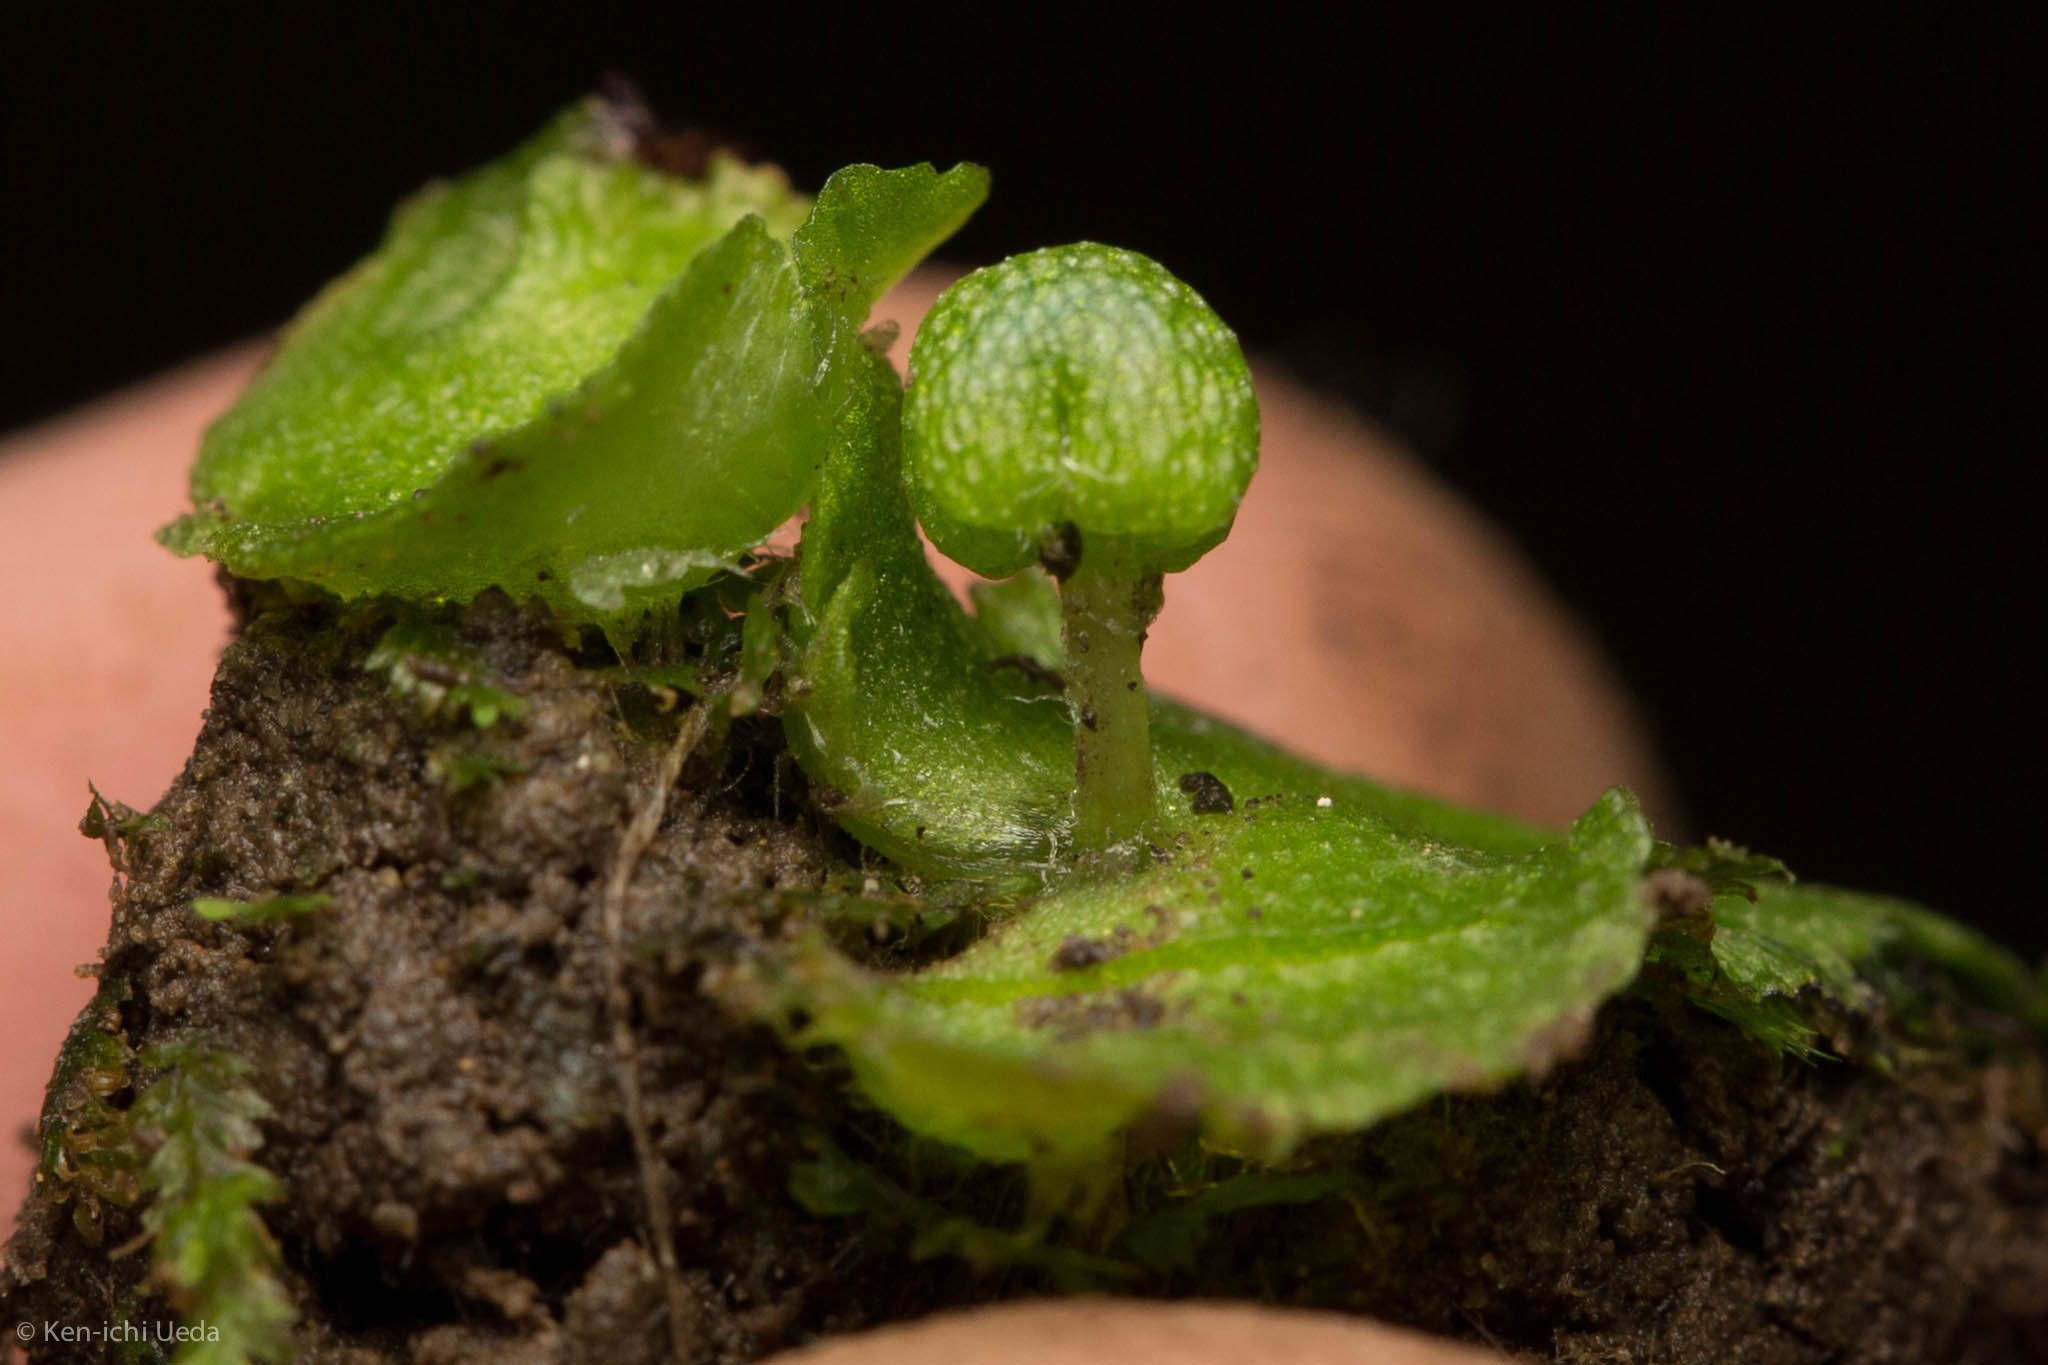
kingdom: Plantae
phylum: Marchantiophyta
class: Marchantiopsida
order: Marchantiales
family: Aytoniaceae
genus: Asterella
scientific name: Asterella californica
